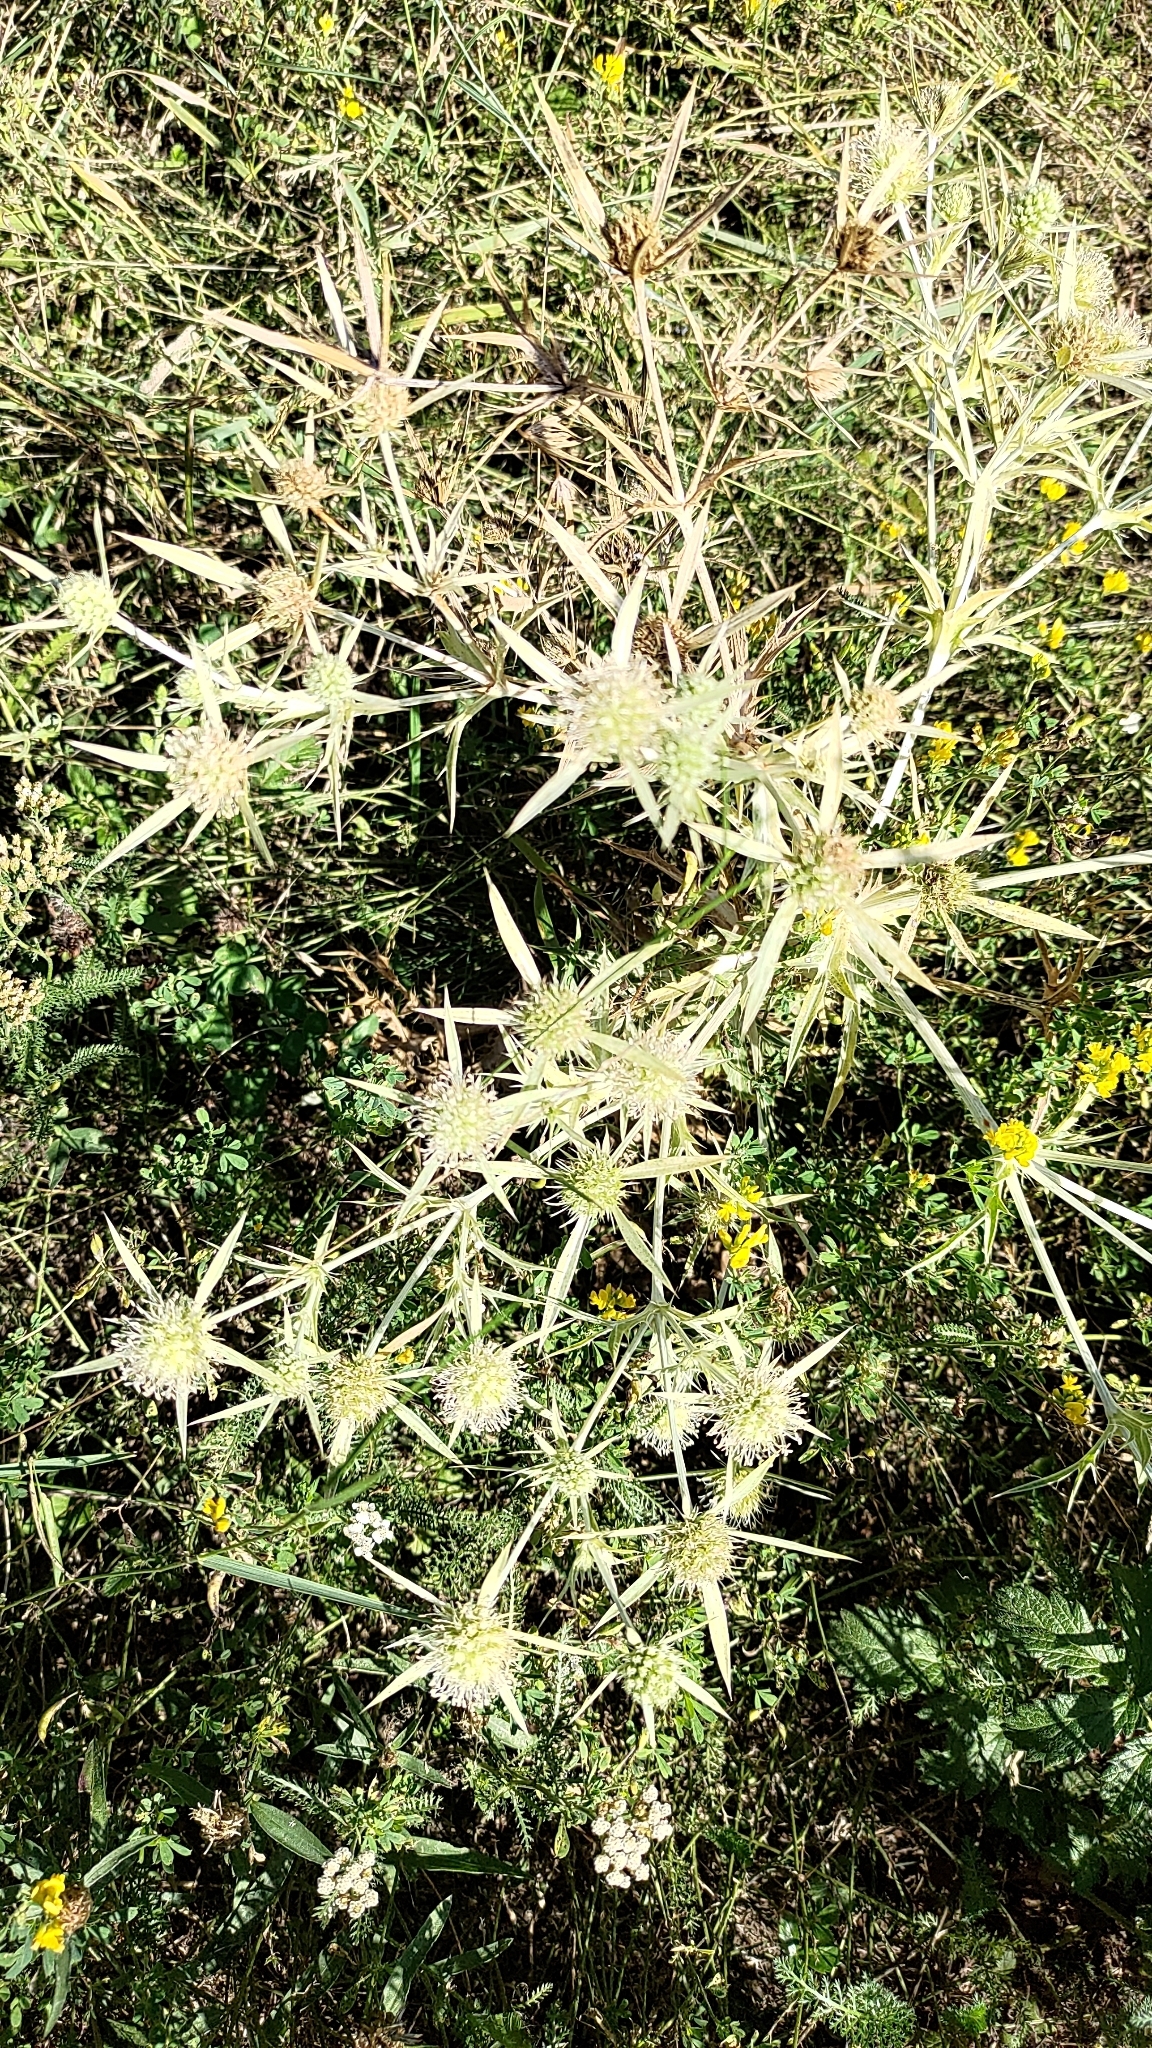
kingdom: Plantae
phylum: Tracheophyta
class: Magnoliopsida
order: Apiales
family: Apiaceae
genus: Eryngium
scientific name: Eryngium campestre
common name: Field eryngo
